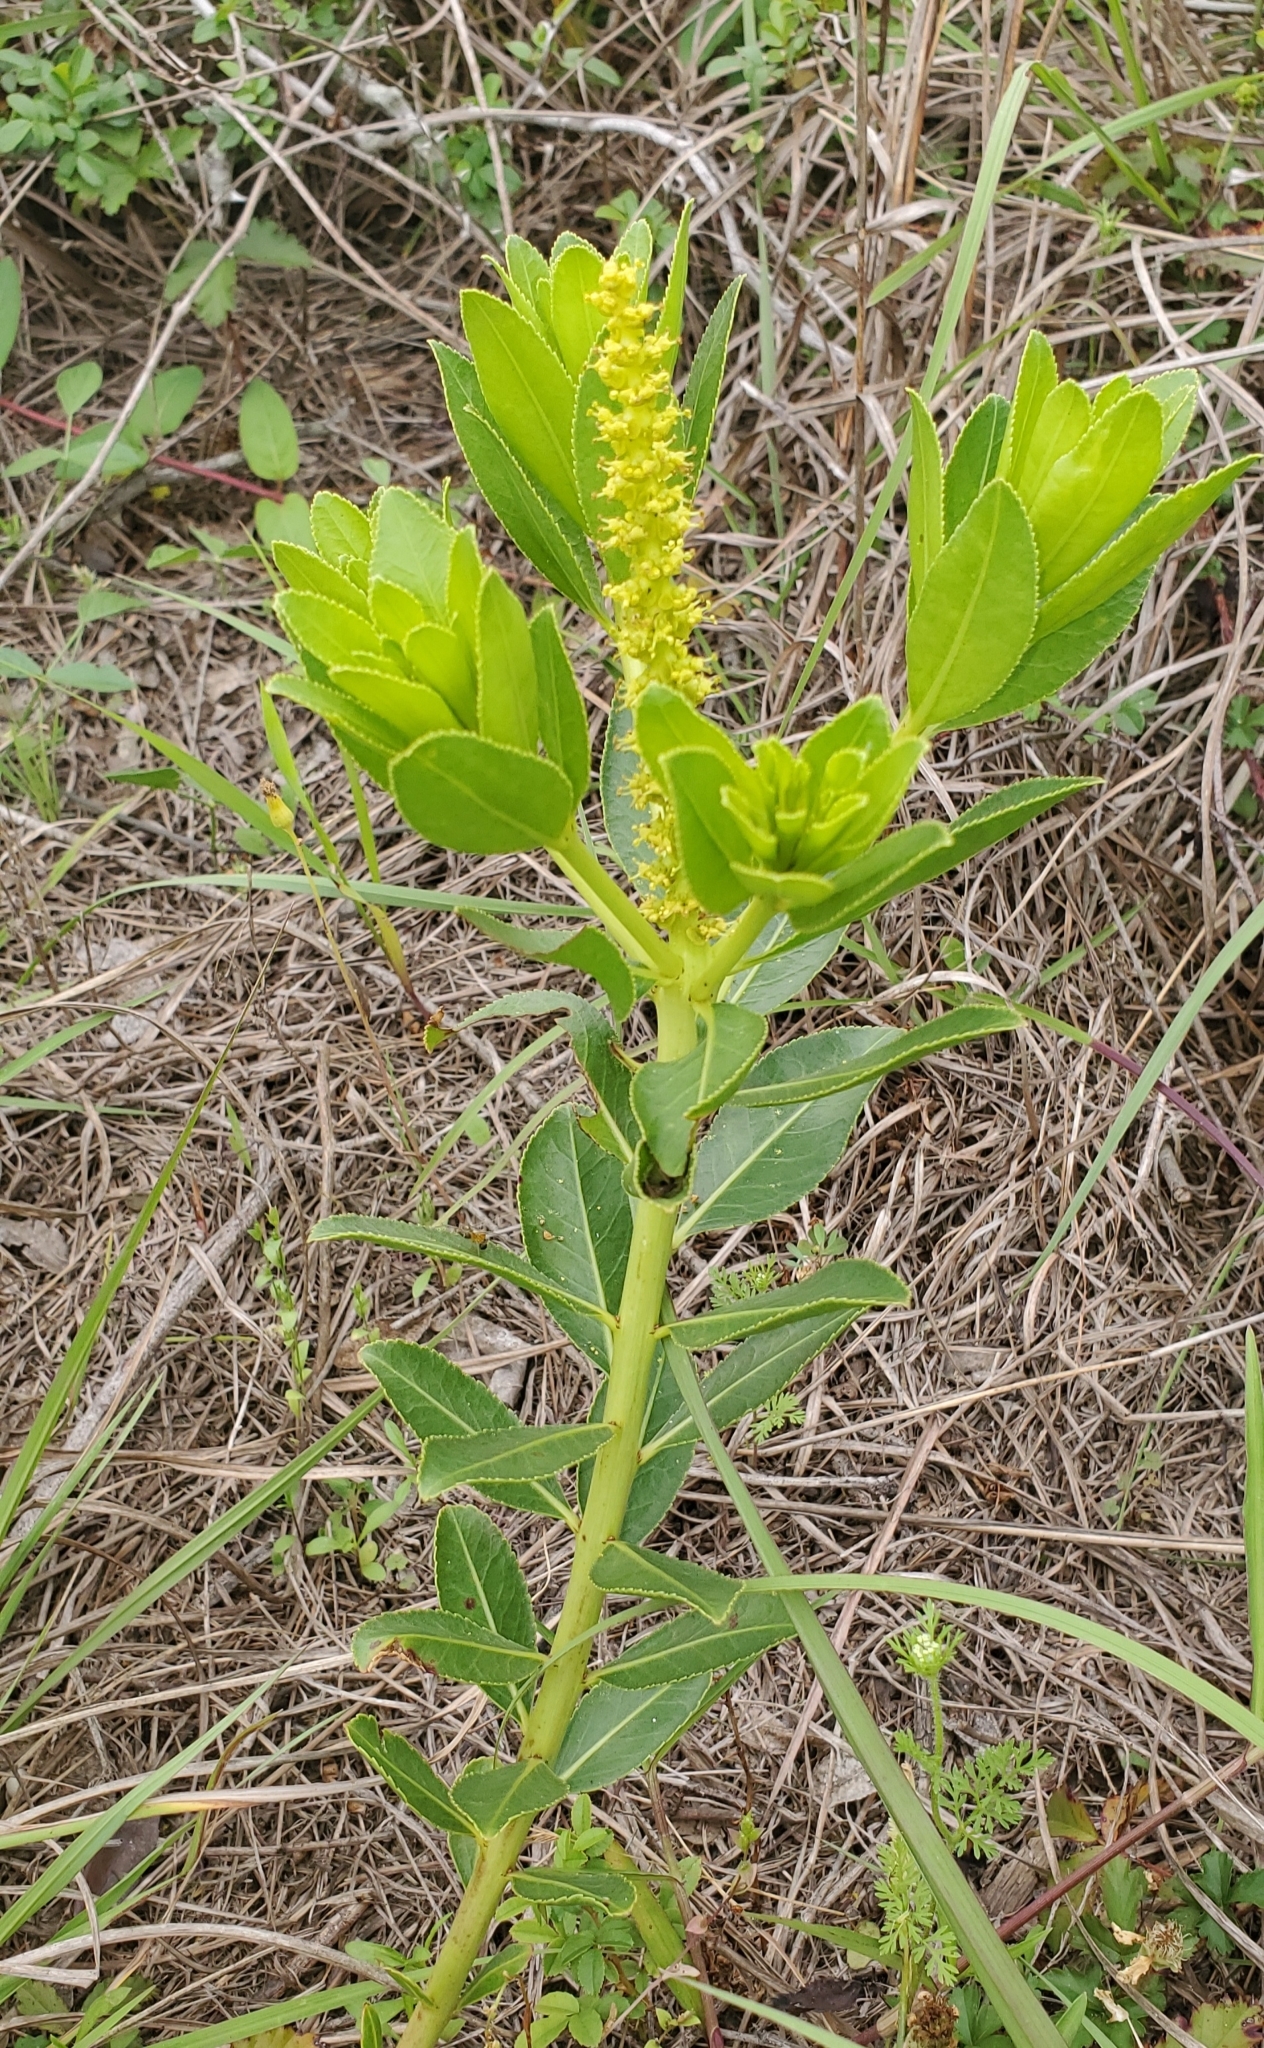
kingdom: Plantae
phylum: Tracheophyta
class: Magnoliopsida
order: Malpighiales
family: Euphorbiaceae
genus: Stillingia
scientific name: Stillingia sylvatica
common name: Queen's-delight
